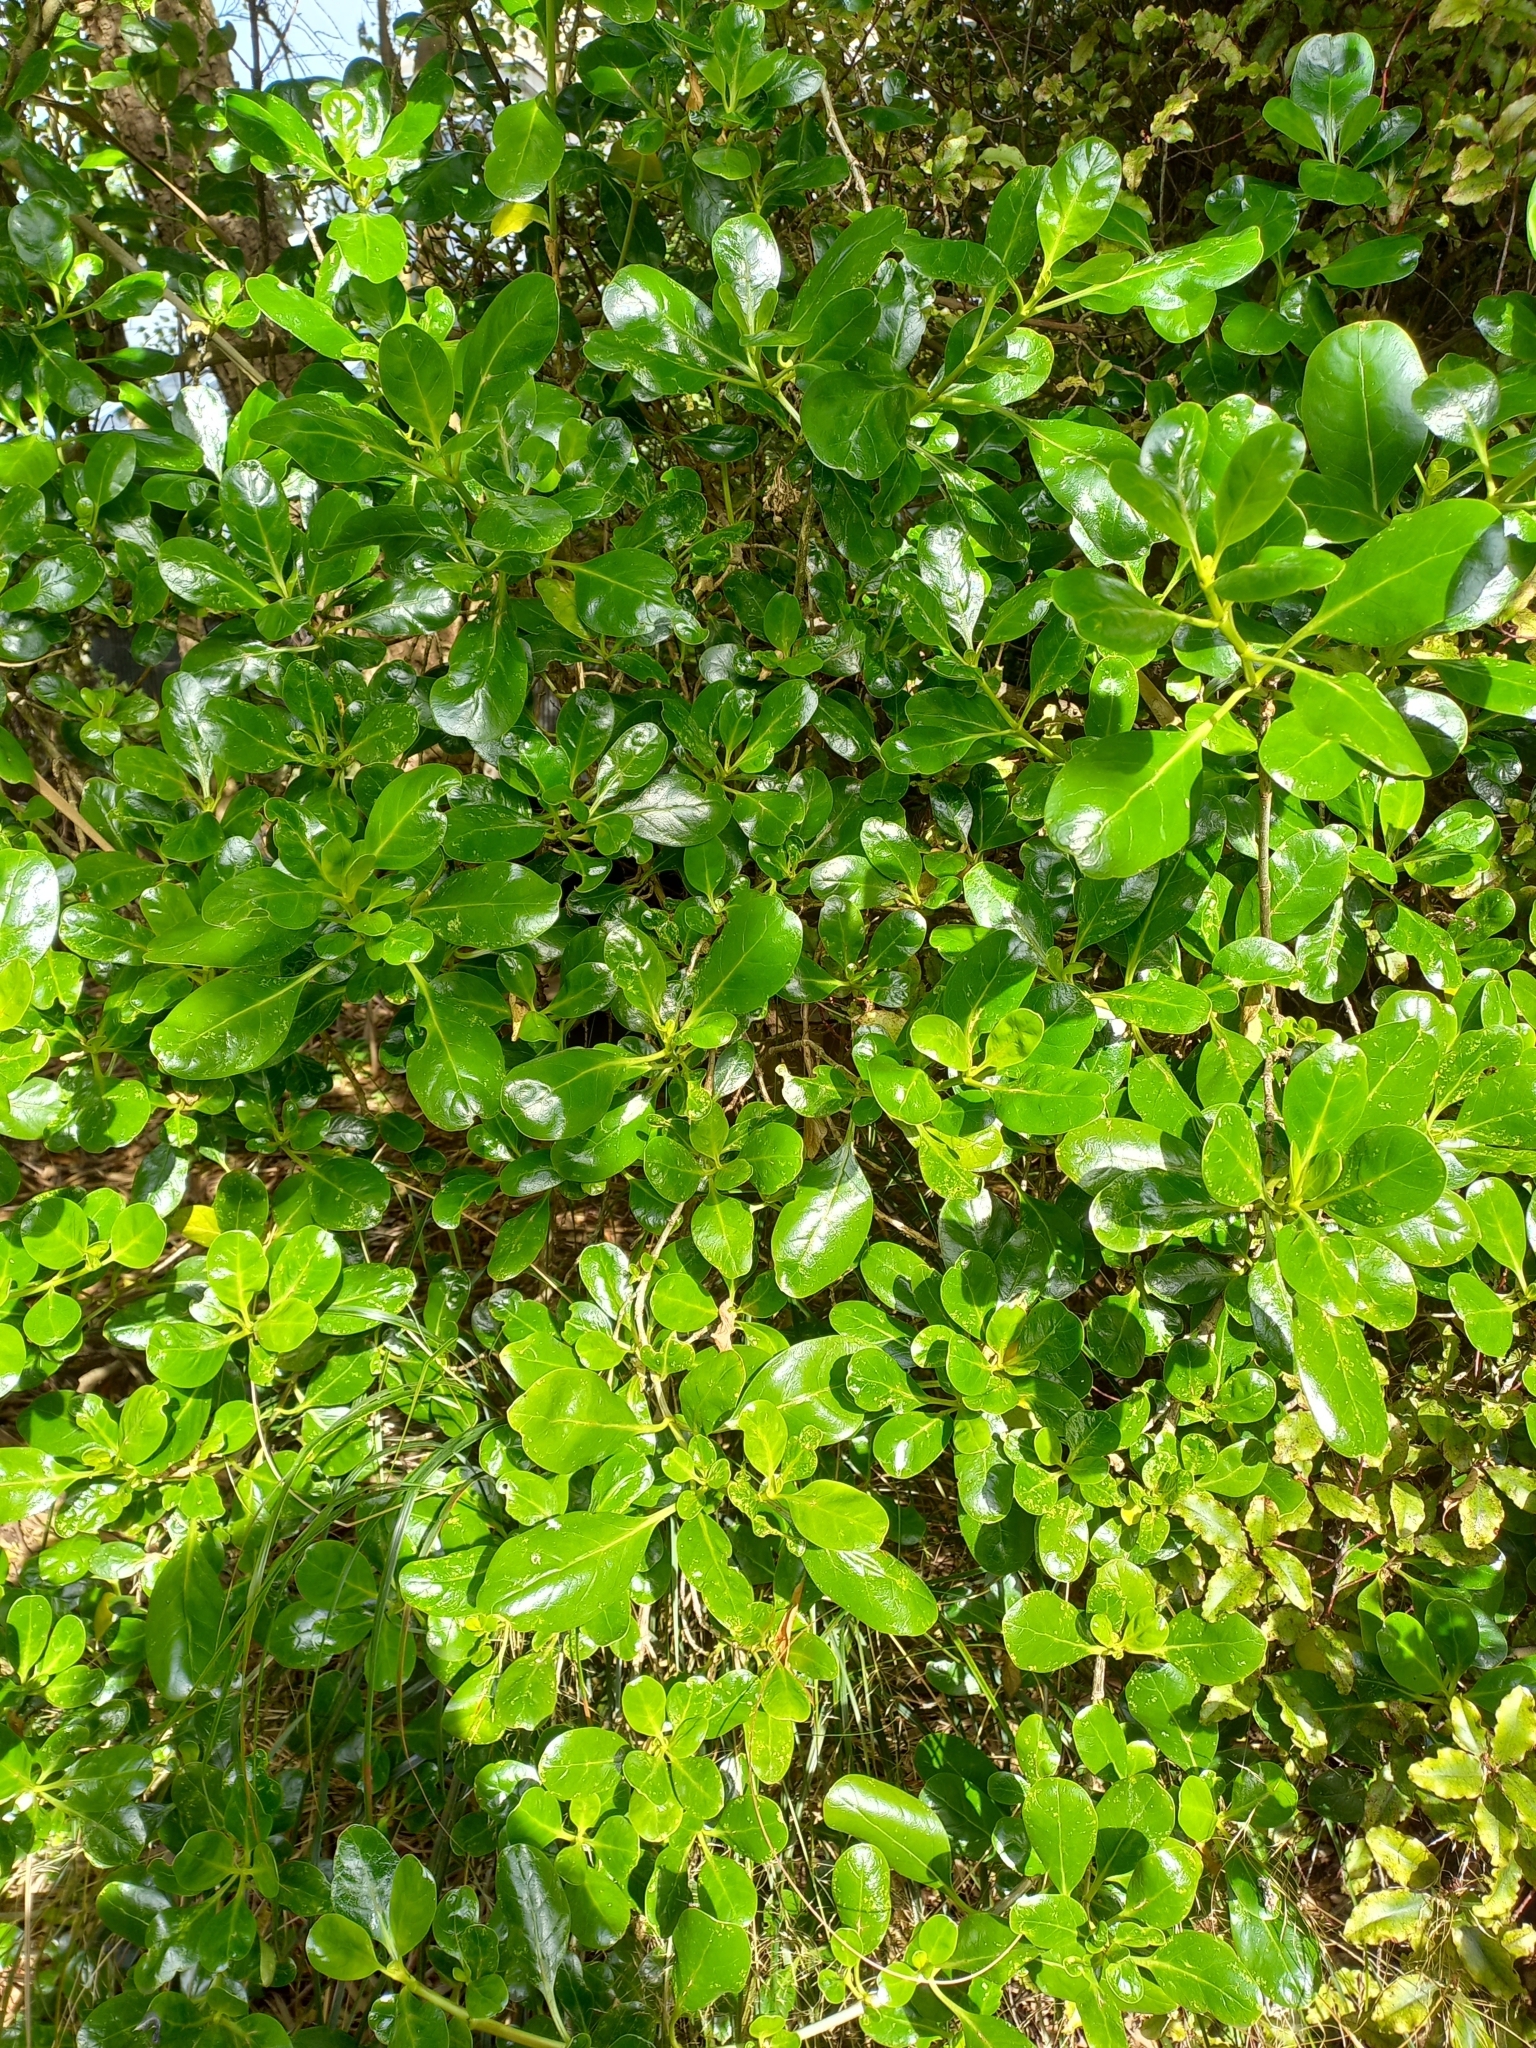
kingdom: Plantae
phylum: Tracheophyta
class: Magnoliopsida
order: Gentianales
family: Rubiaceae
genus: Coprosma
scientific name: Coprosma repens
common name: Tree bedstraw
